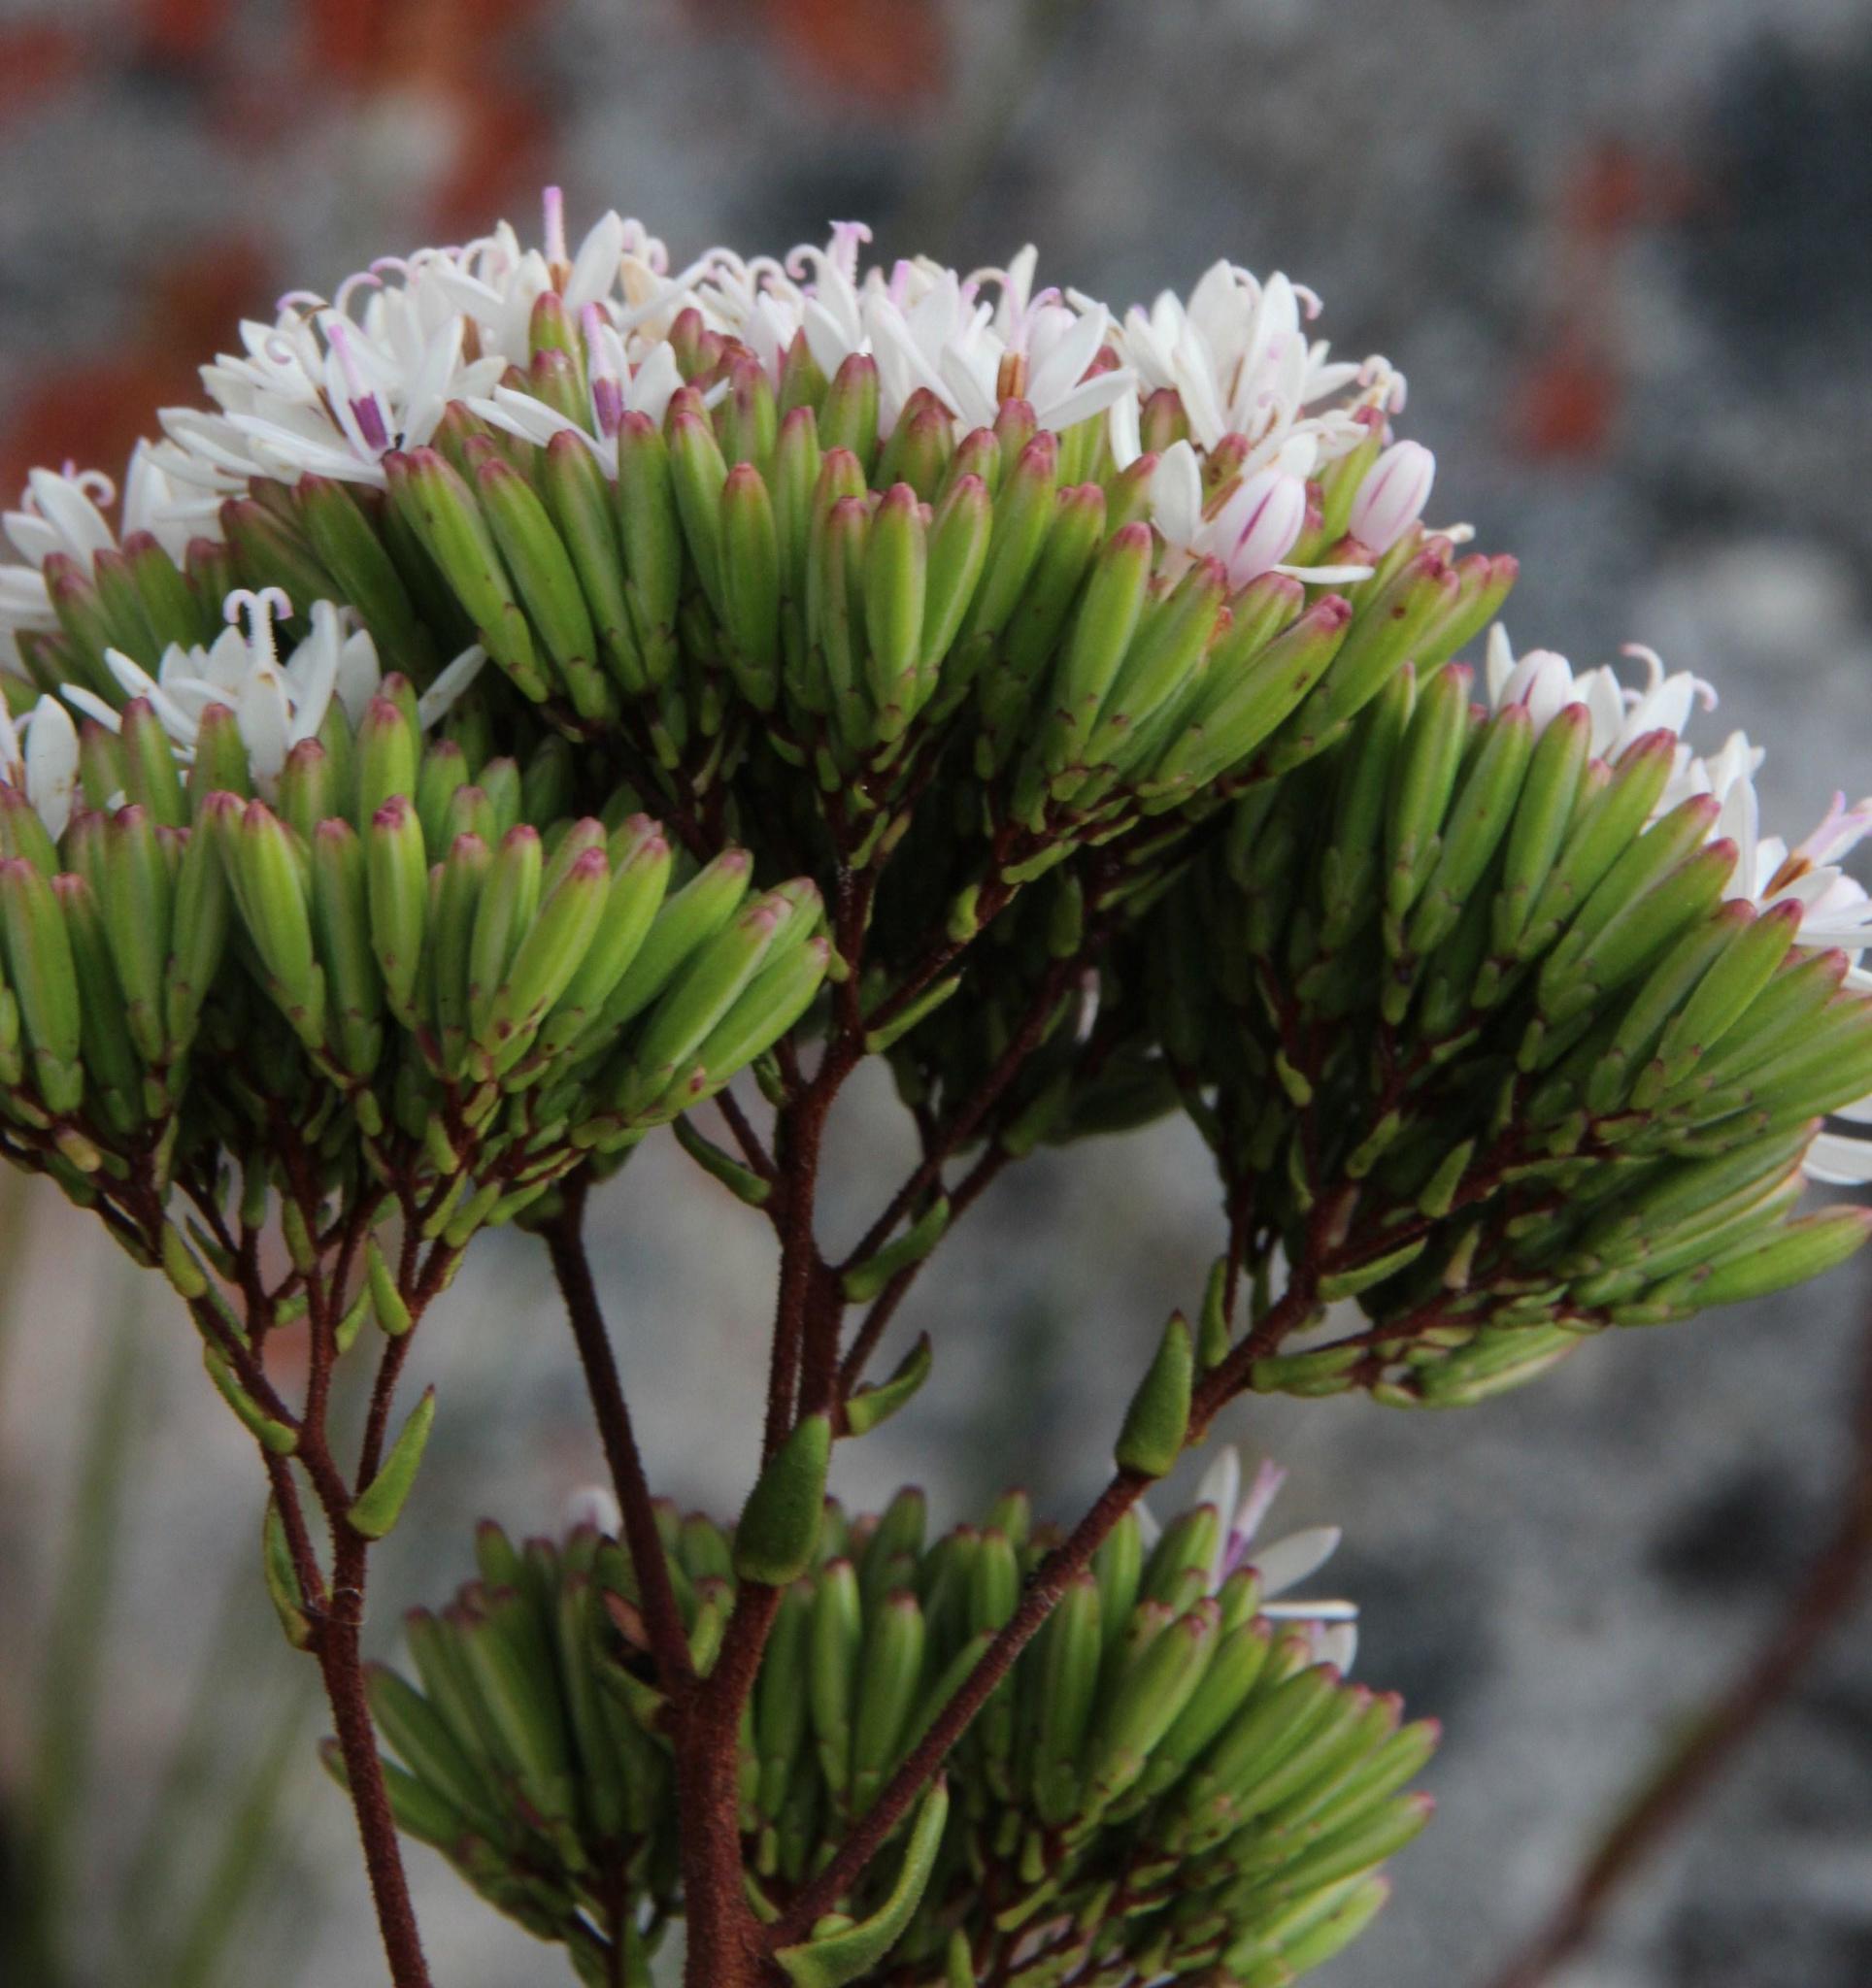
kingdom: Plantae
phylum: Tracheophyta
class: Magnoliopsida
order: Asterales
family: Asteraceae
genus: Corymbium
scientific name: Corymbium enerve
